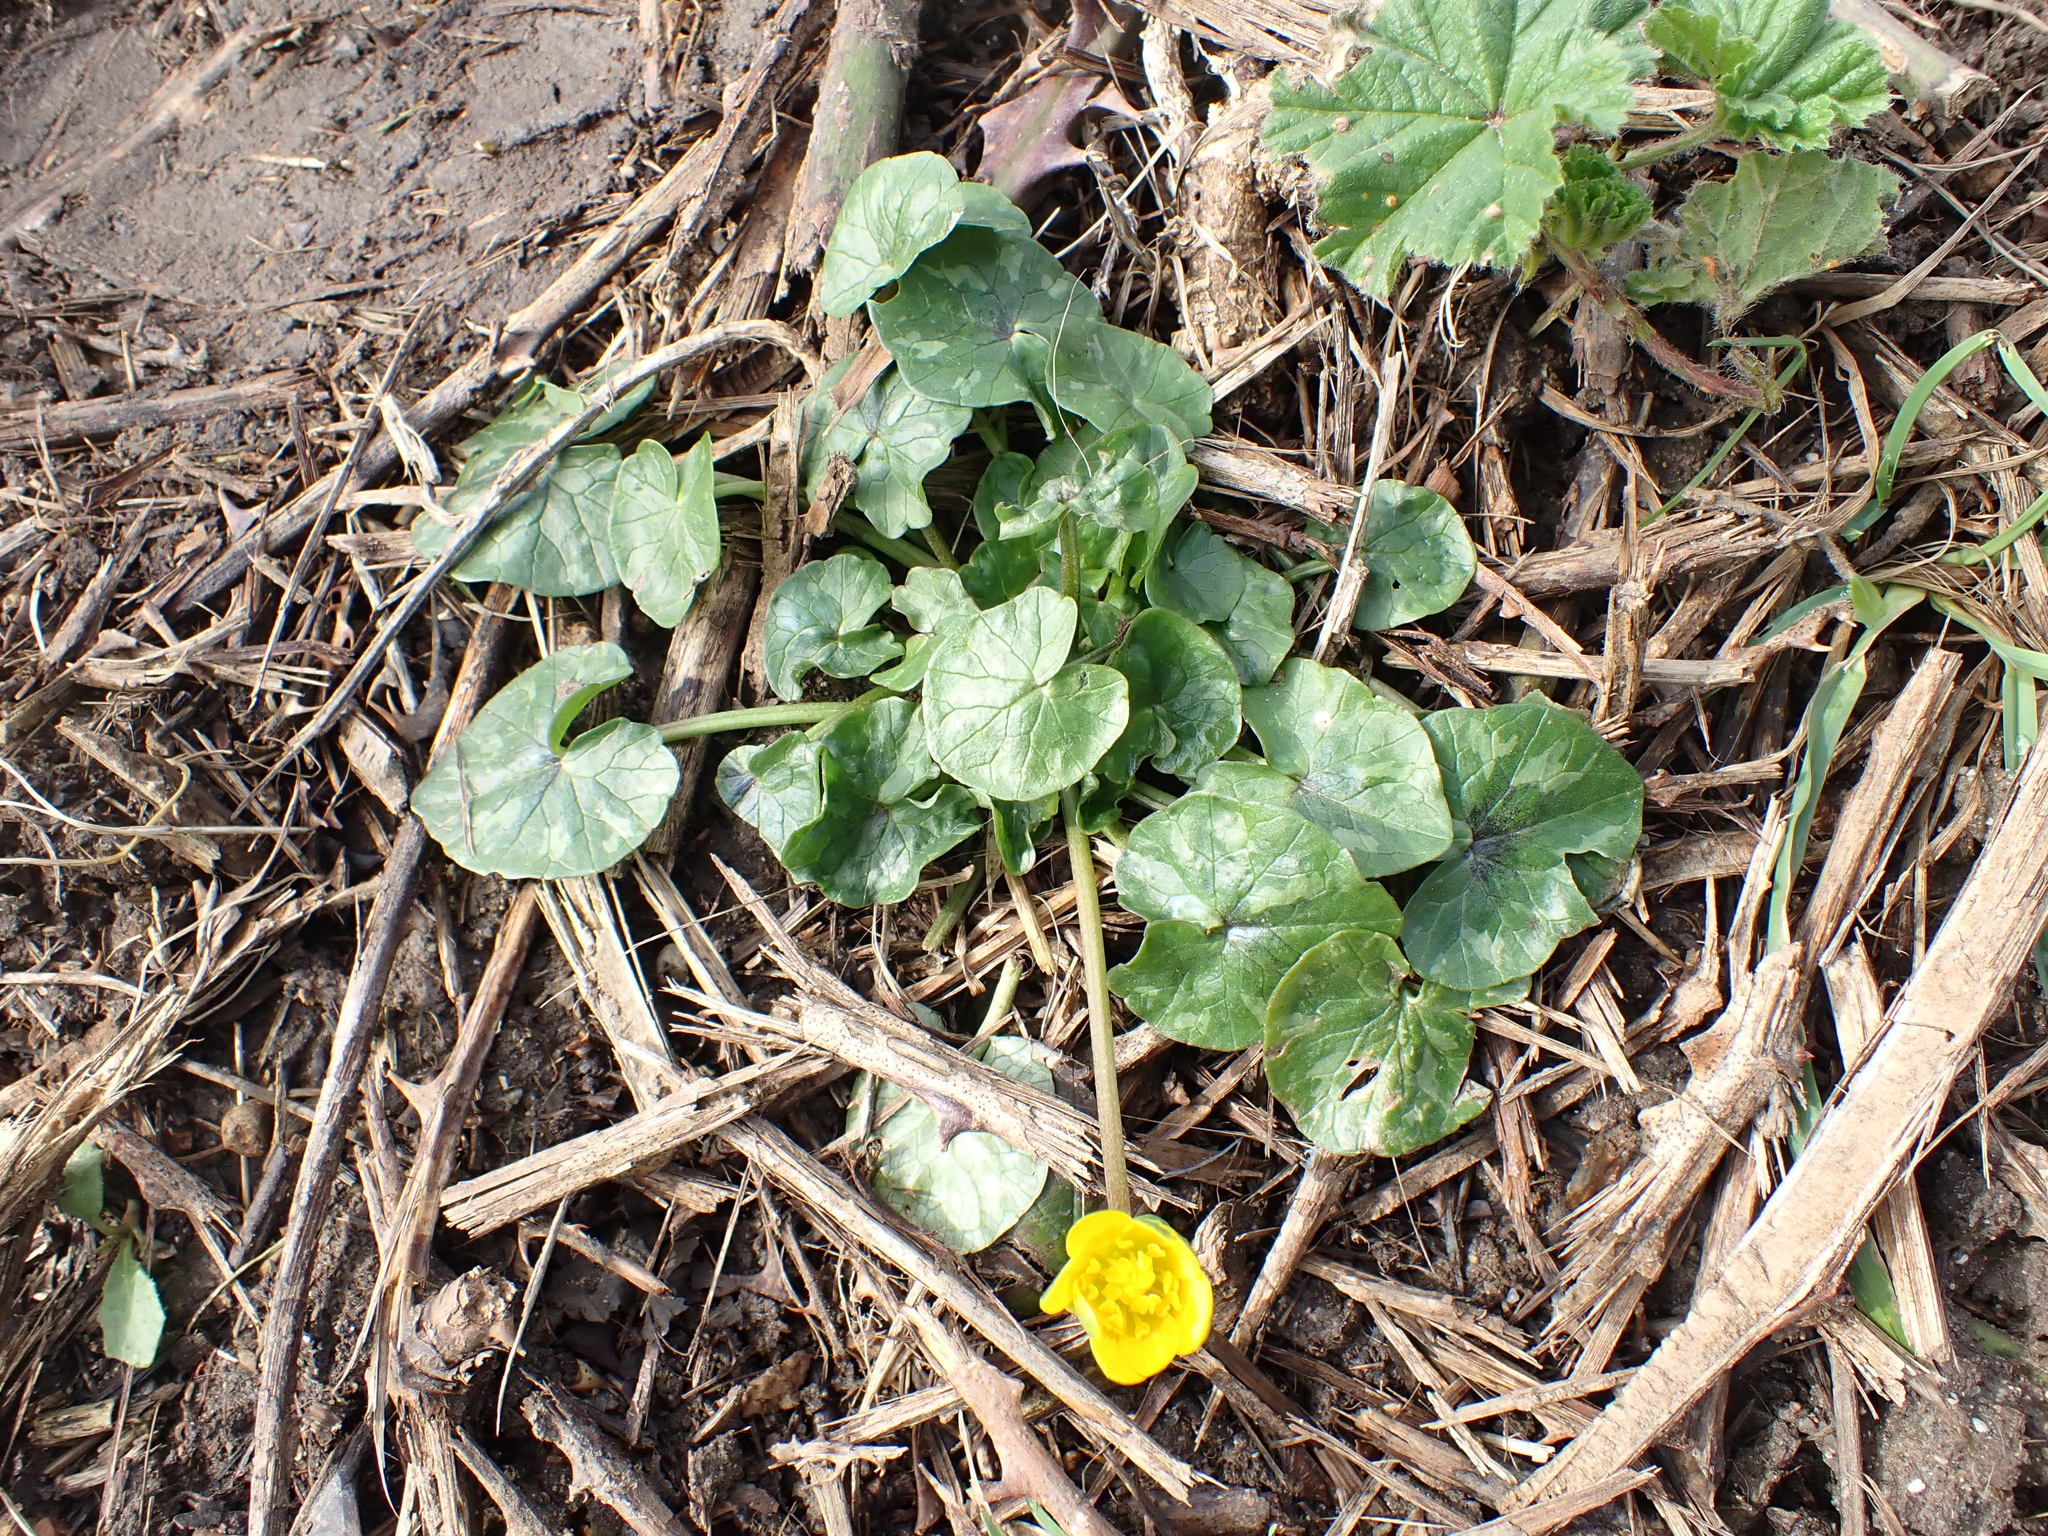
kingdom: Plantae
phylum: Tracheophyta
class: Magnoliopsida
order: Ranunculales
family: Ranunculaceae
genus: Ficaria
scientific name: Ficaria verna
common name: Lesser celandine
